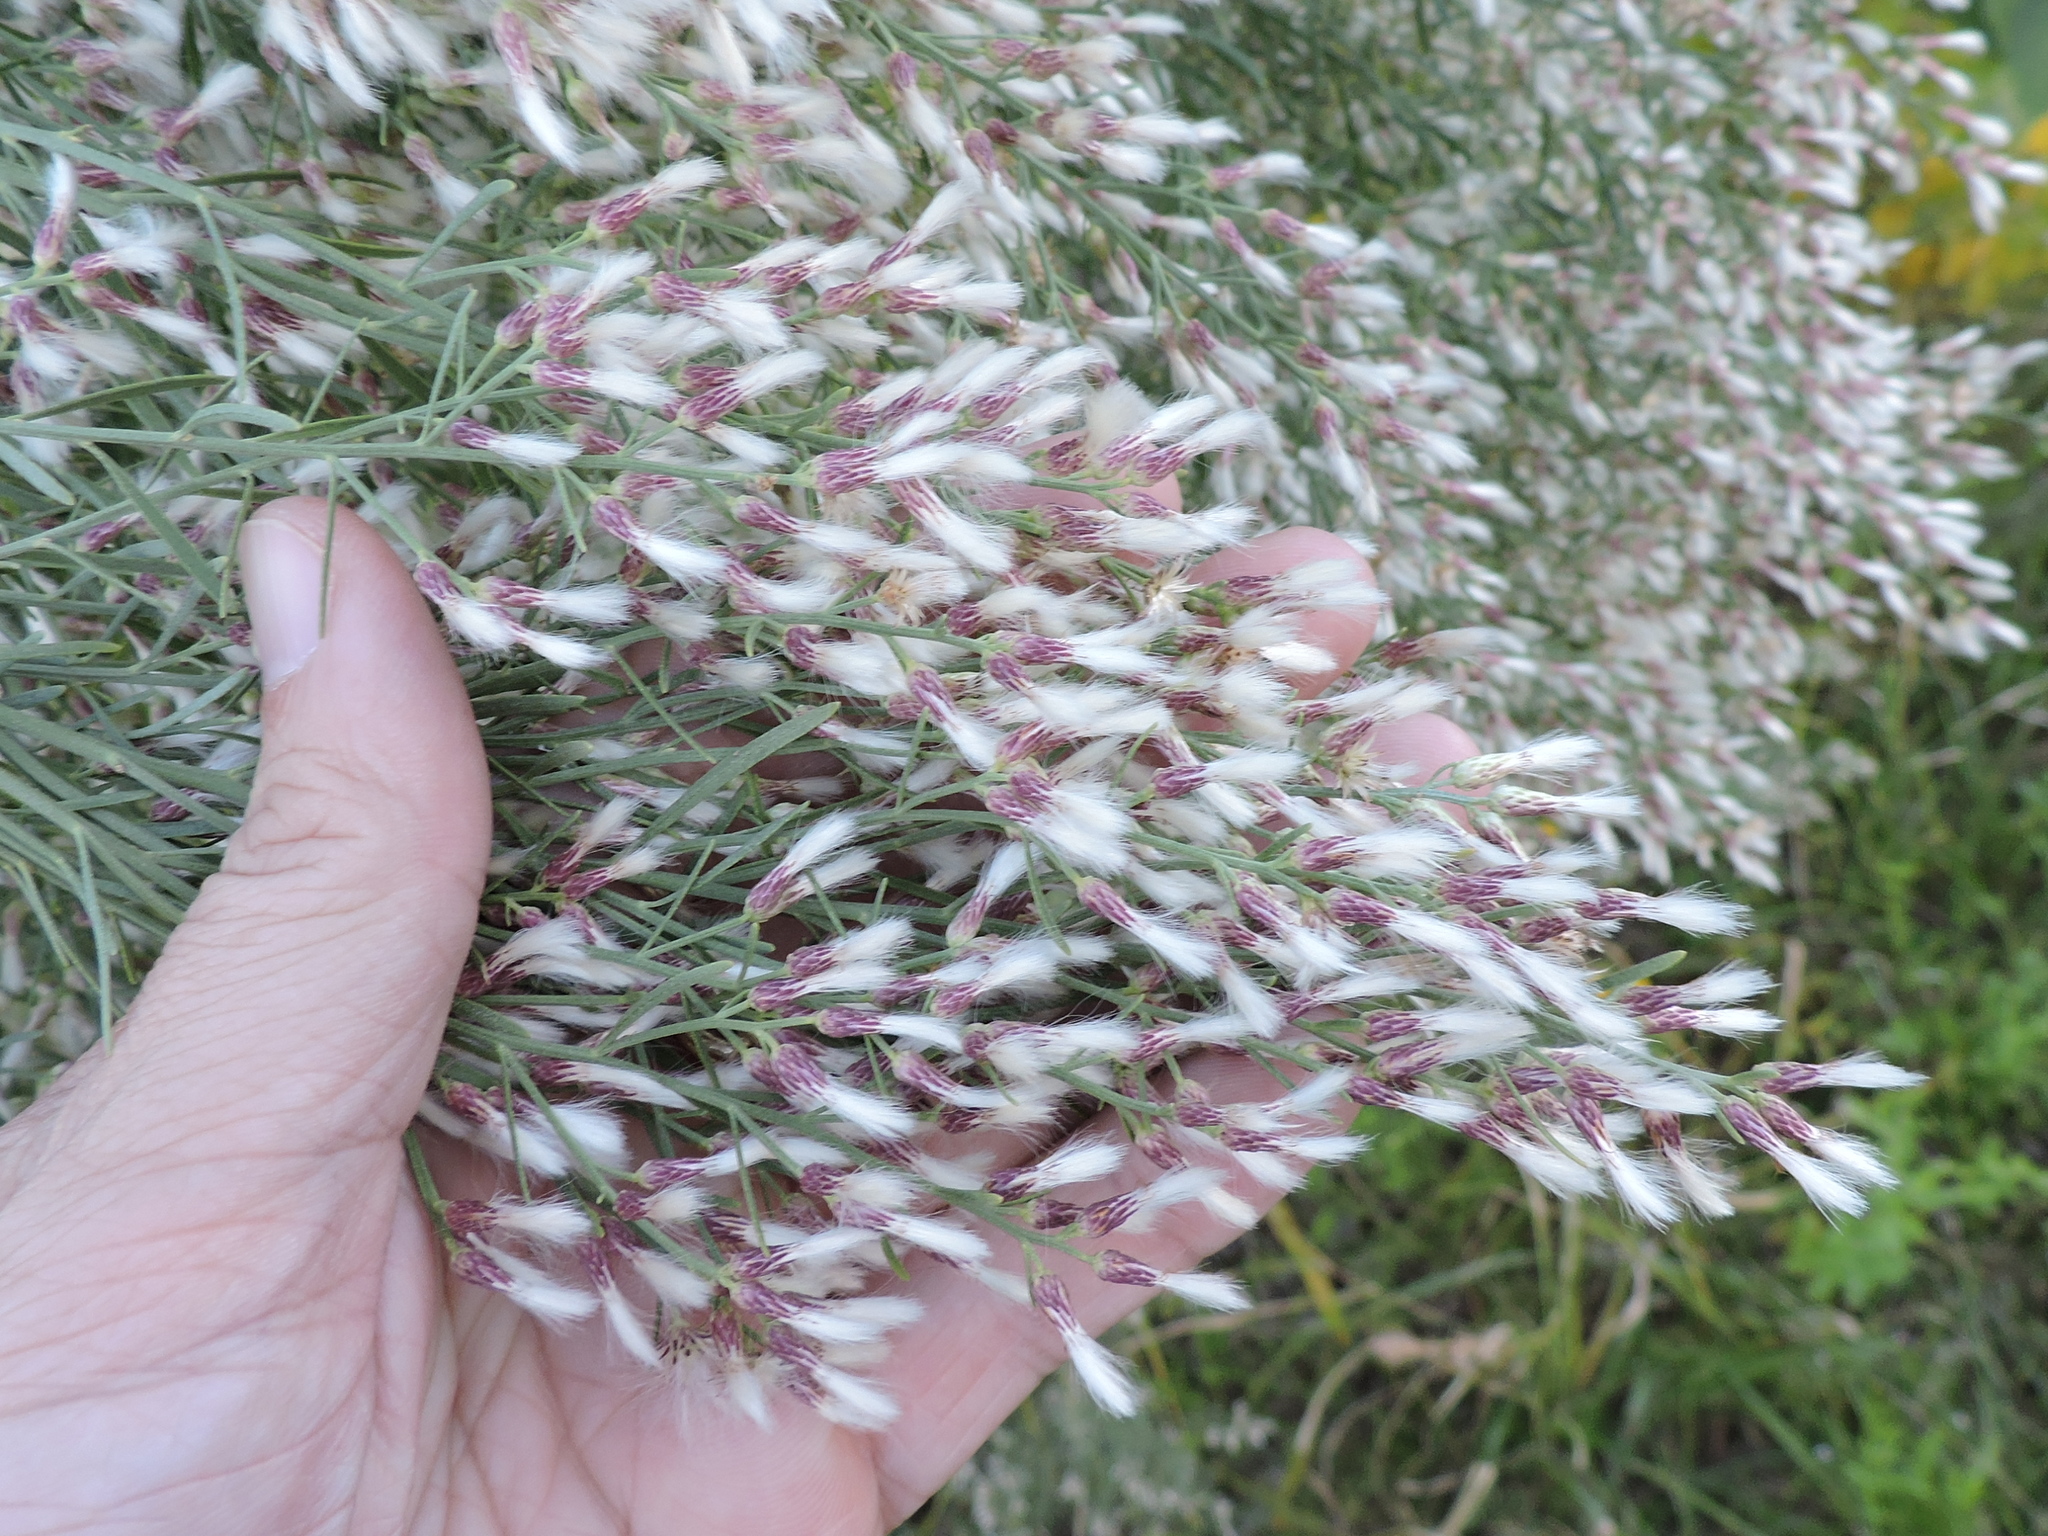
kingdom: Plantae
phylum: Tracheophyta
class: Magnoliopsida
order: Asterales
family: Asteraceae
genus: Baccharis
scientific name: Baccharis neglecta
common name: Roosevelt-weed
